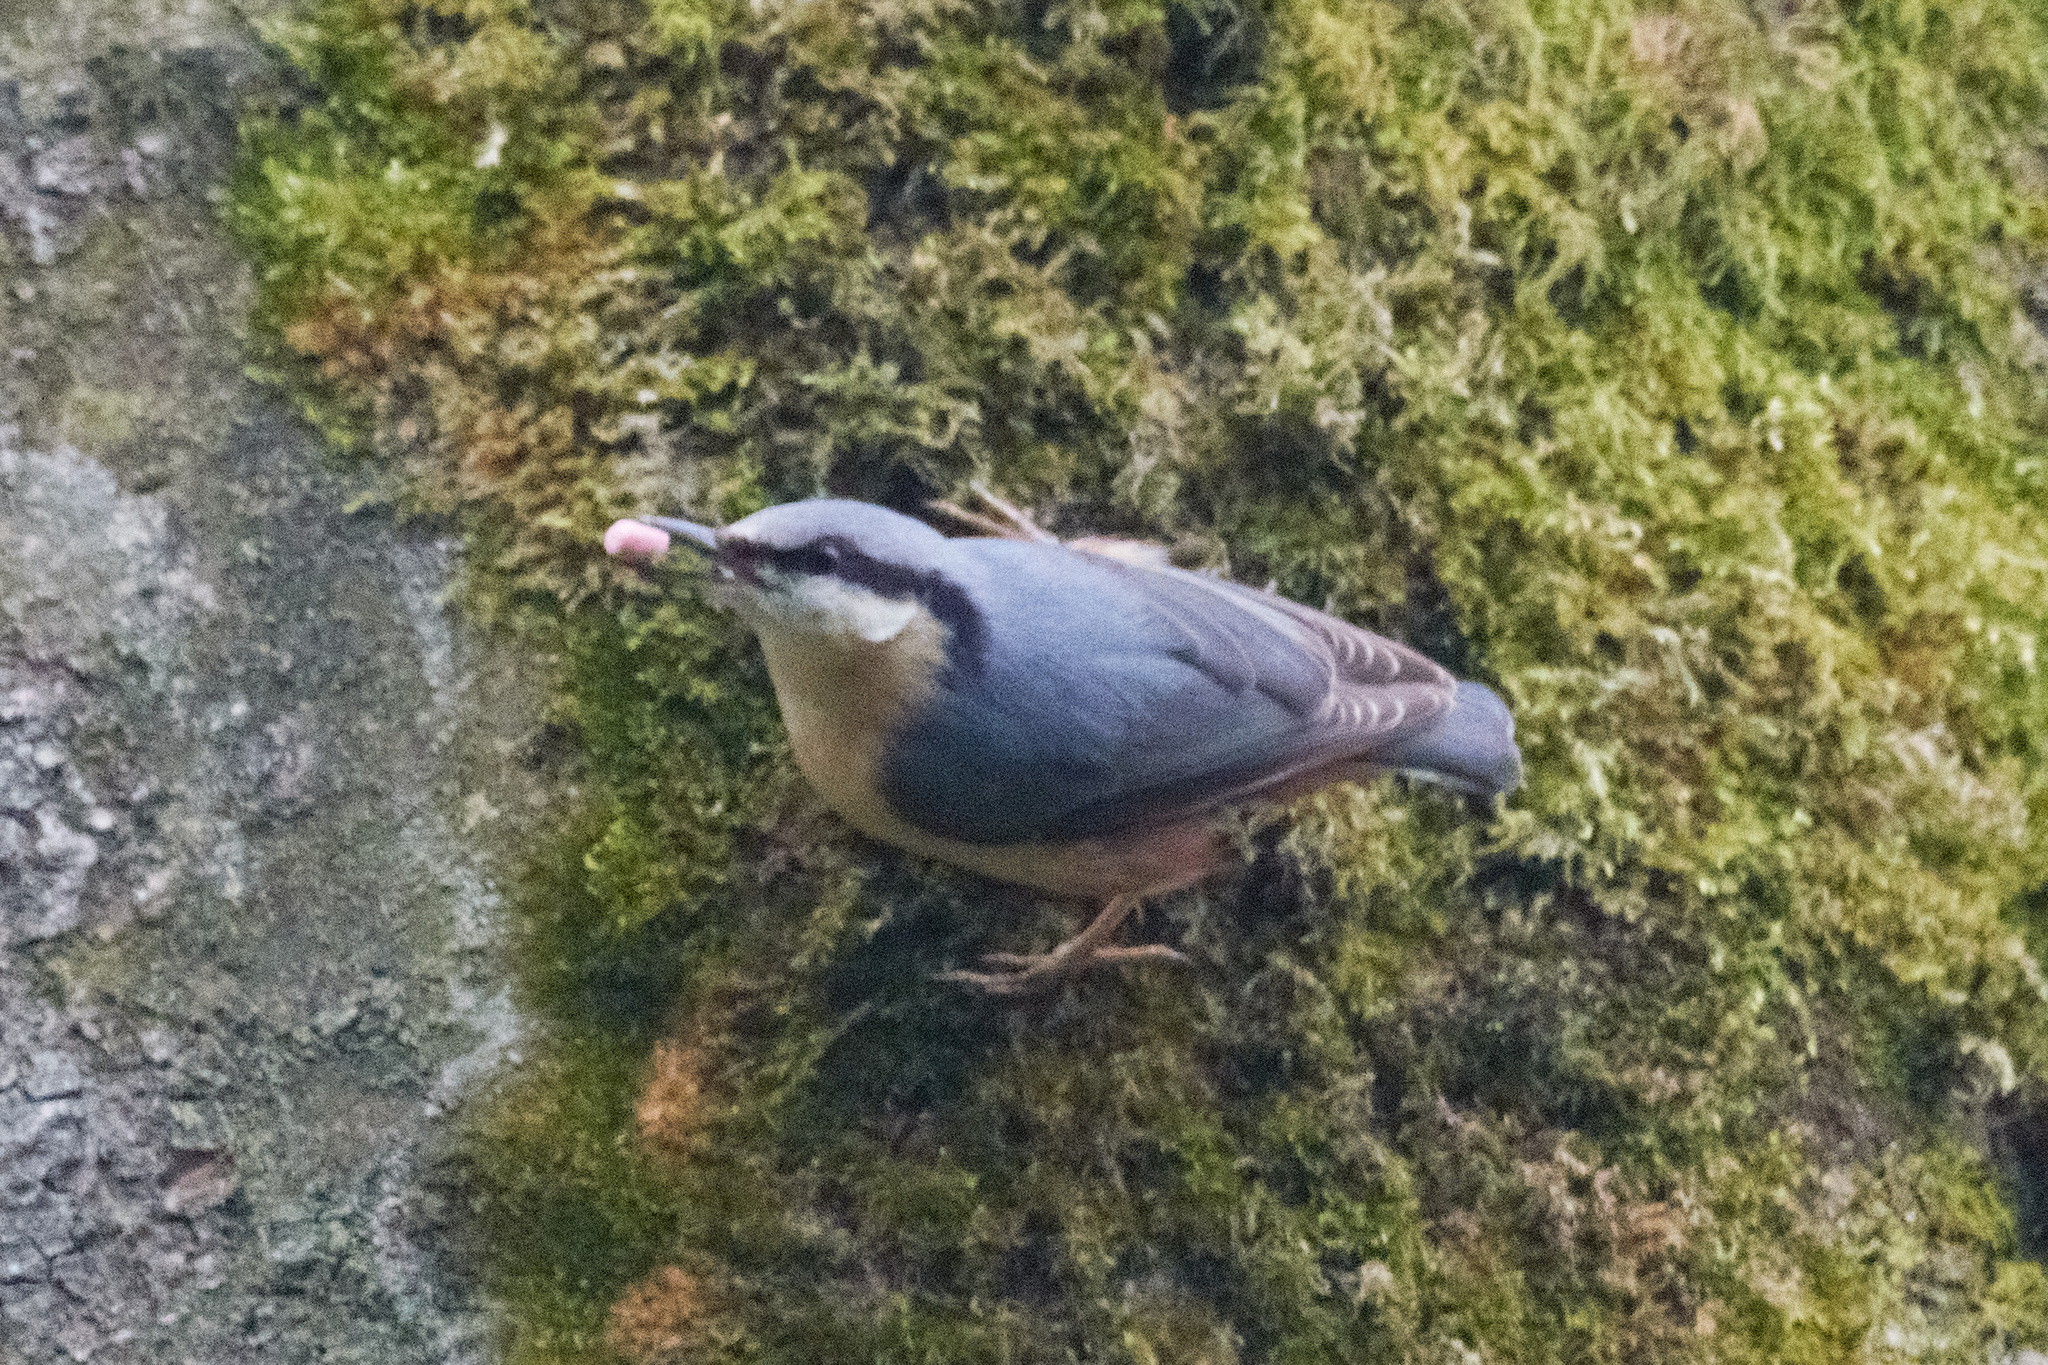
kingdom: Animalia
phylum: Chordata
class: Aves
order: Passeriformes
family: Sittidae
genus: Sitta
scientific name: Sitta europaea
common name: Eurasian nuthatch
